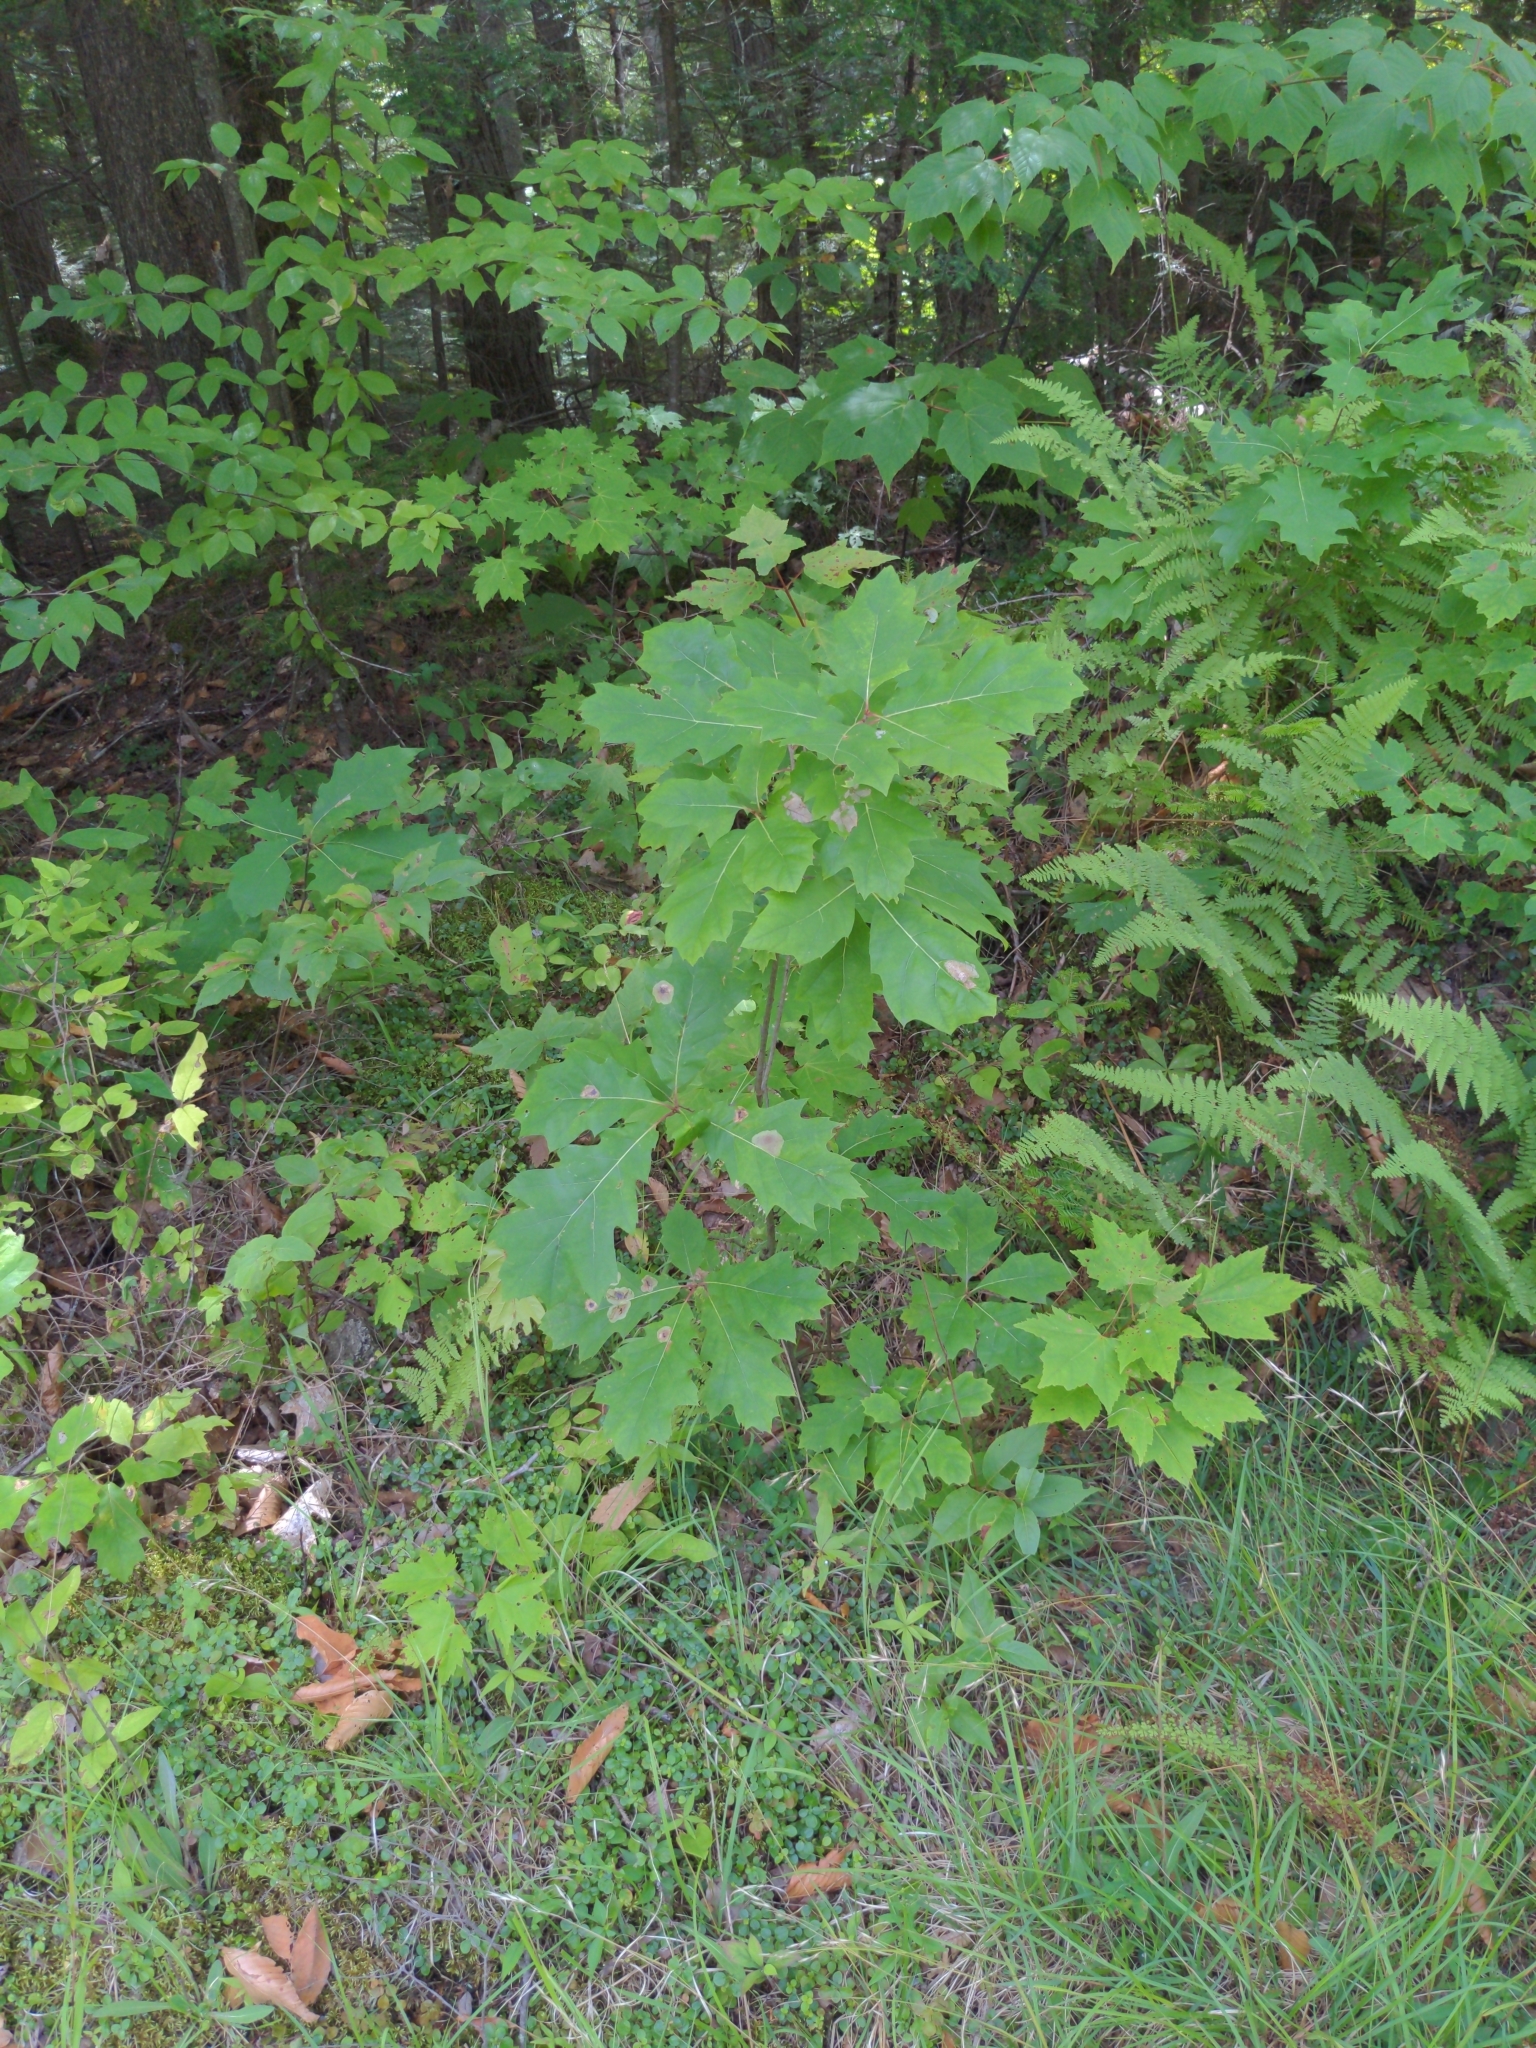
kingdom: Plantae
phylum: Tracheophyta
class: Magnoliopsida
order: Fagales
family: Fagaceae
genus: Quercus
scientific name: Quercus rubra
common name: Red oak
